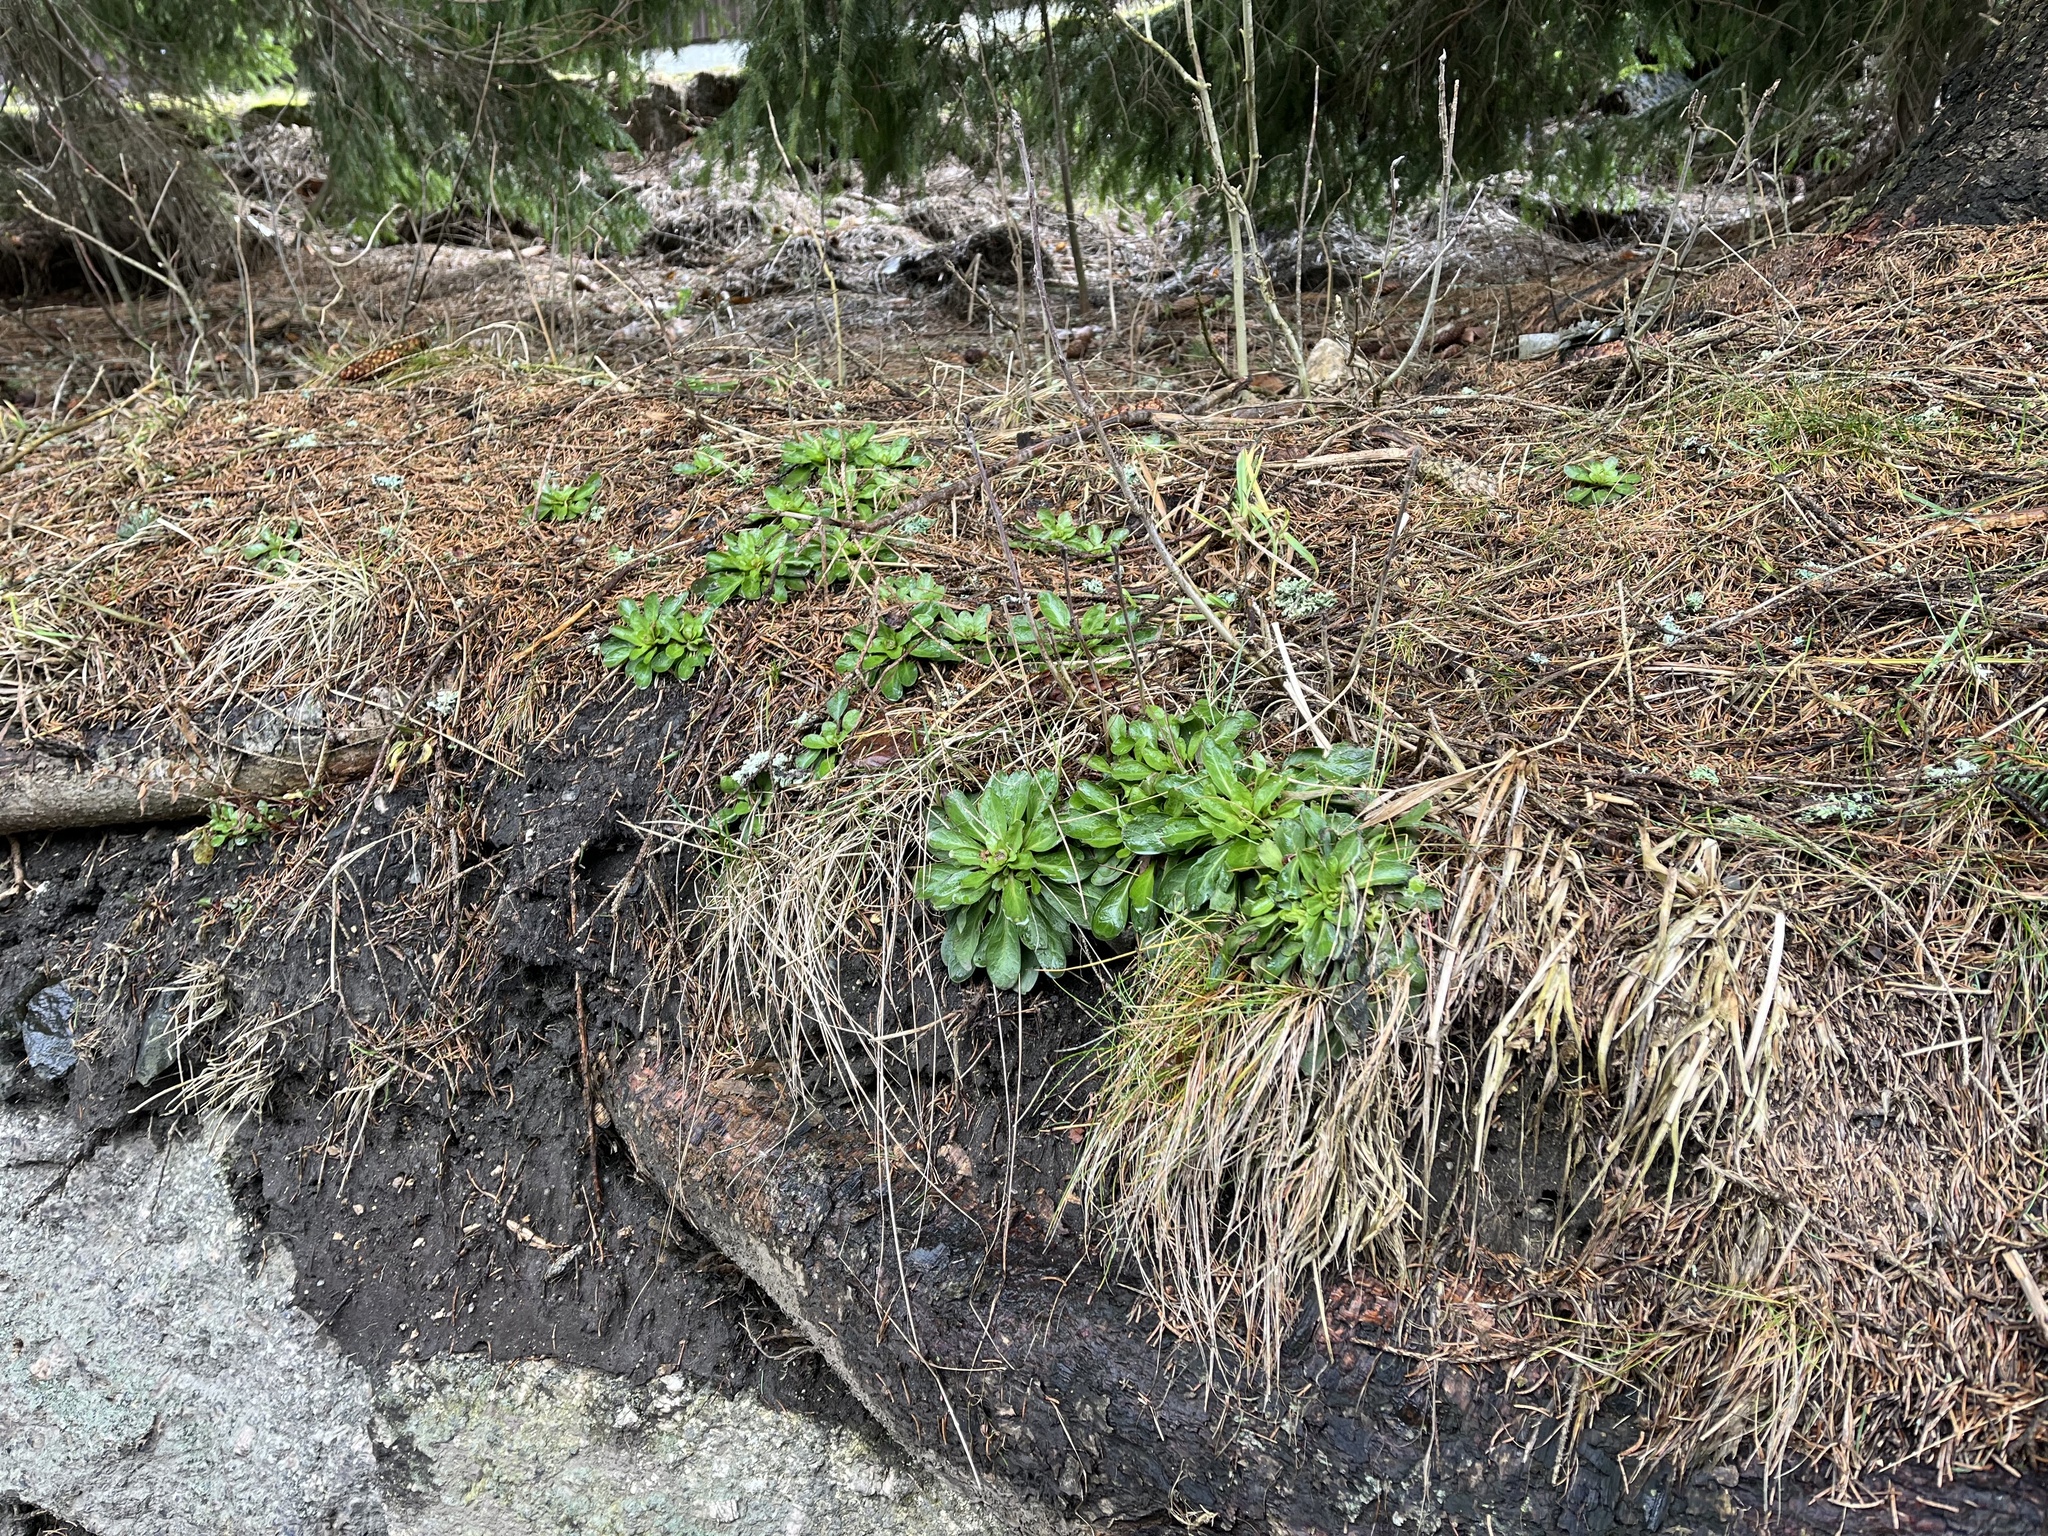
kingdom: Plantae
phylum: Tracheophyta
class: Magnoliopsida
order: Brassicales
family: Brassicaceae
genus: Noccaea
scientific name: Noccaea caerulescens
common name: Alpine pennycress
